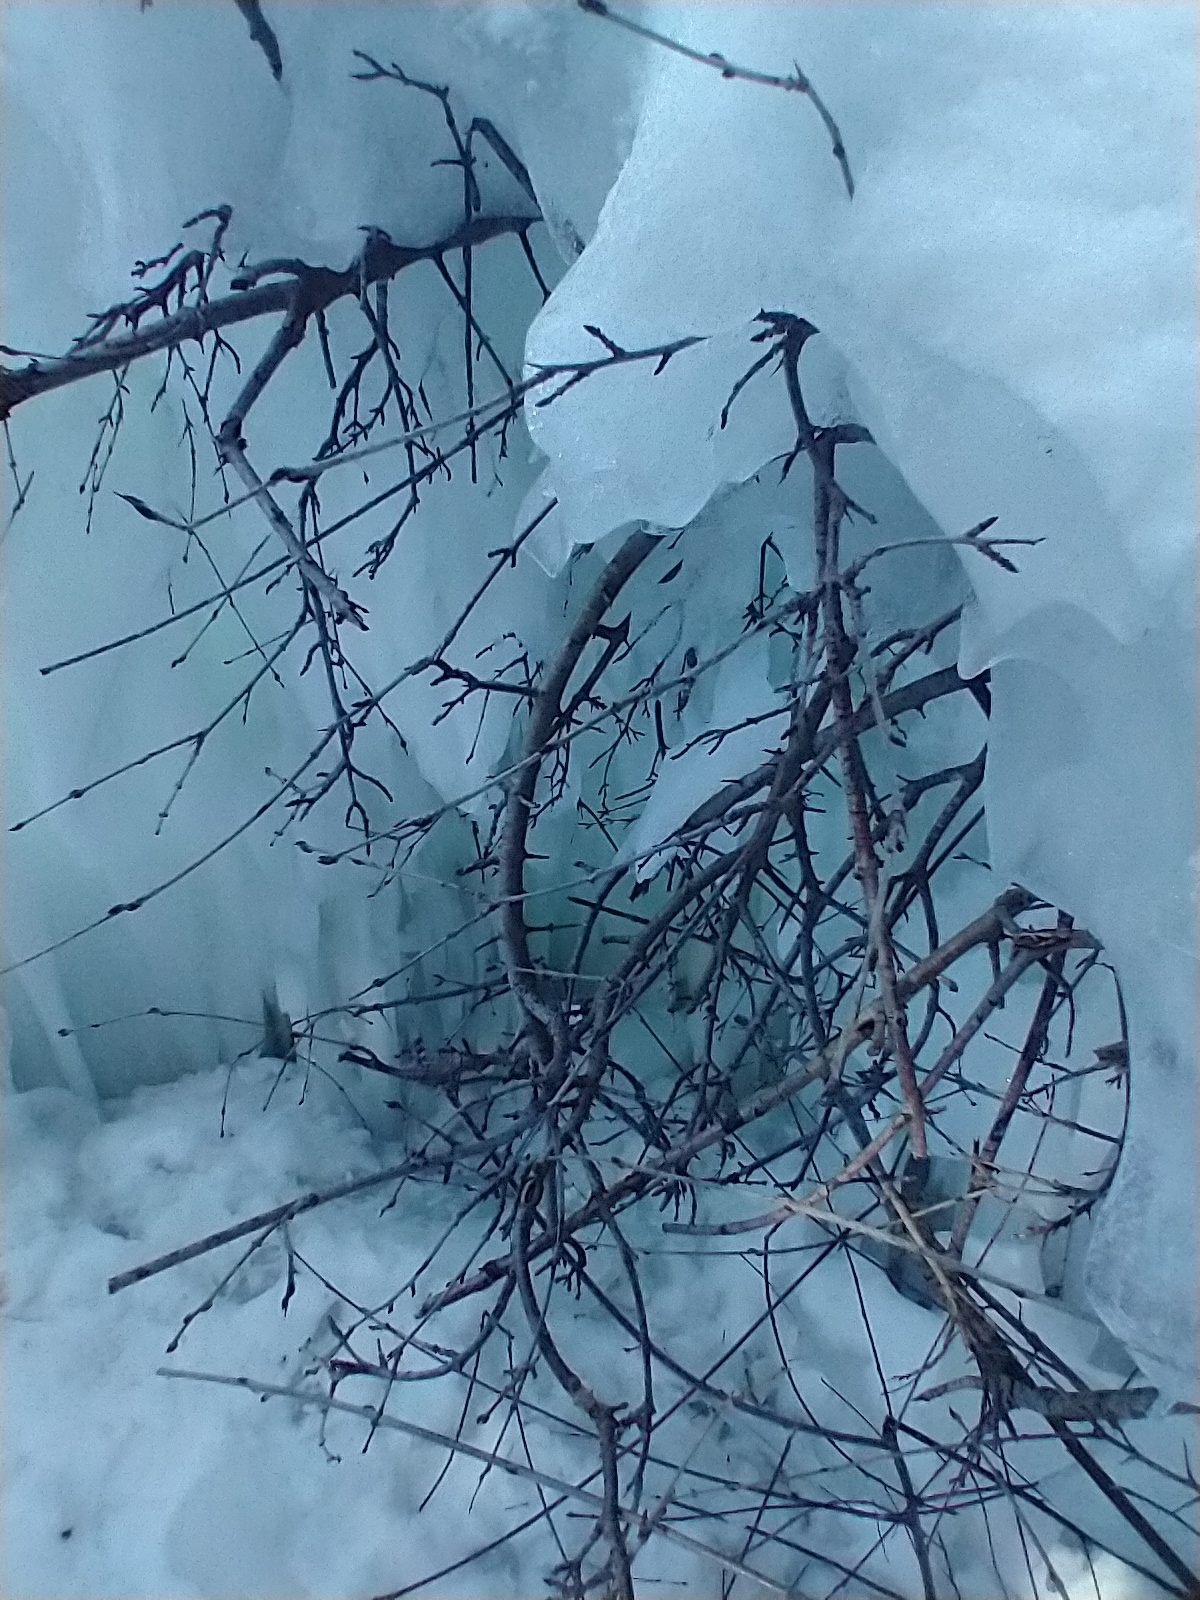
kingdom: Plantae
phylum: Tracheophyta
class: Magnoliopsida
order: Rosales
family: Rhamnaceae
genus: Rhamnus
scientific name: Rhamnus cathartica
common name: Common buckthorn
